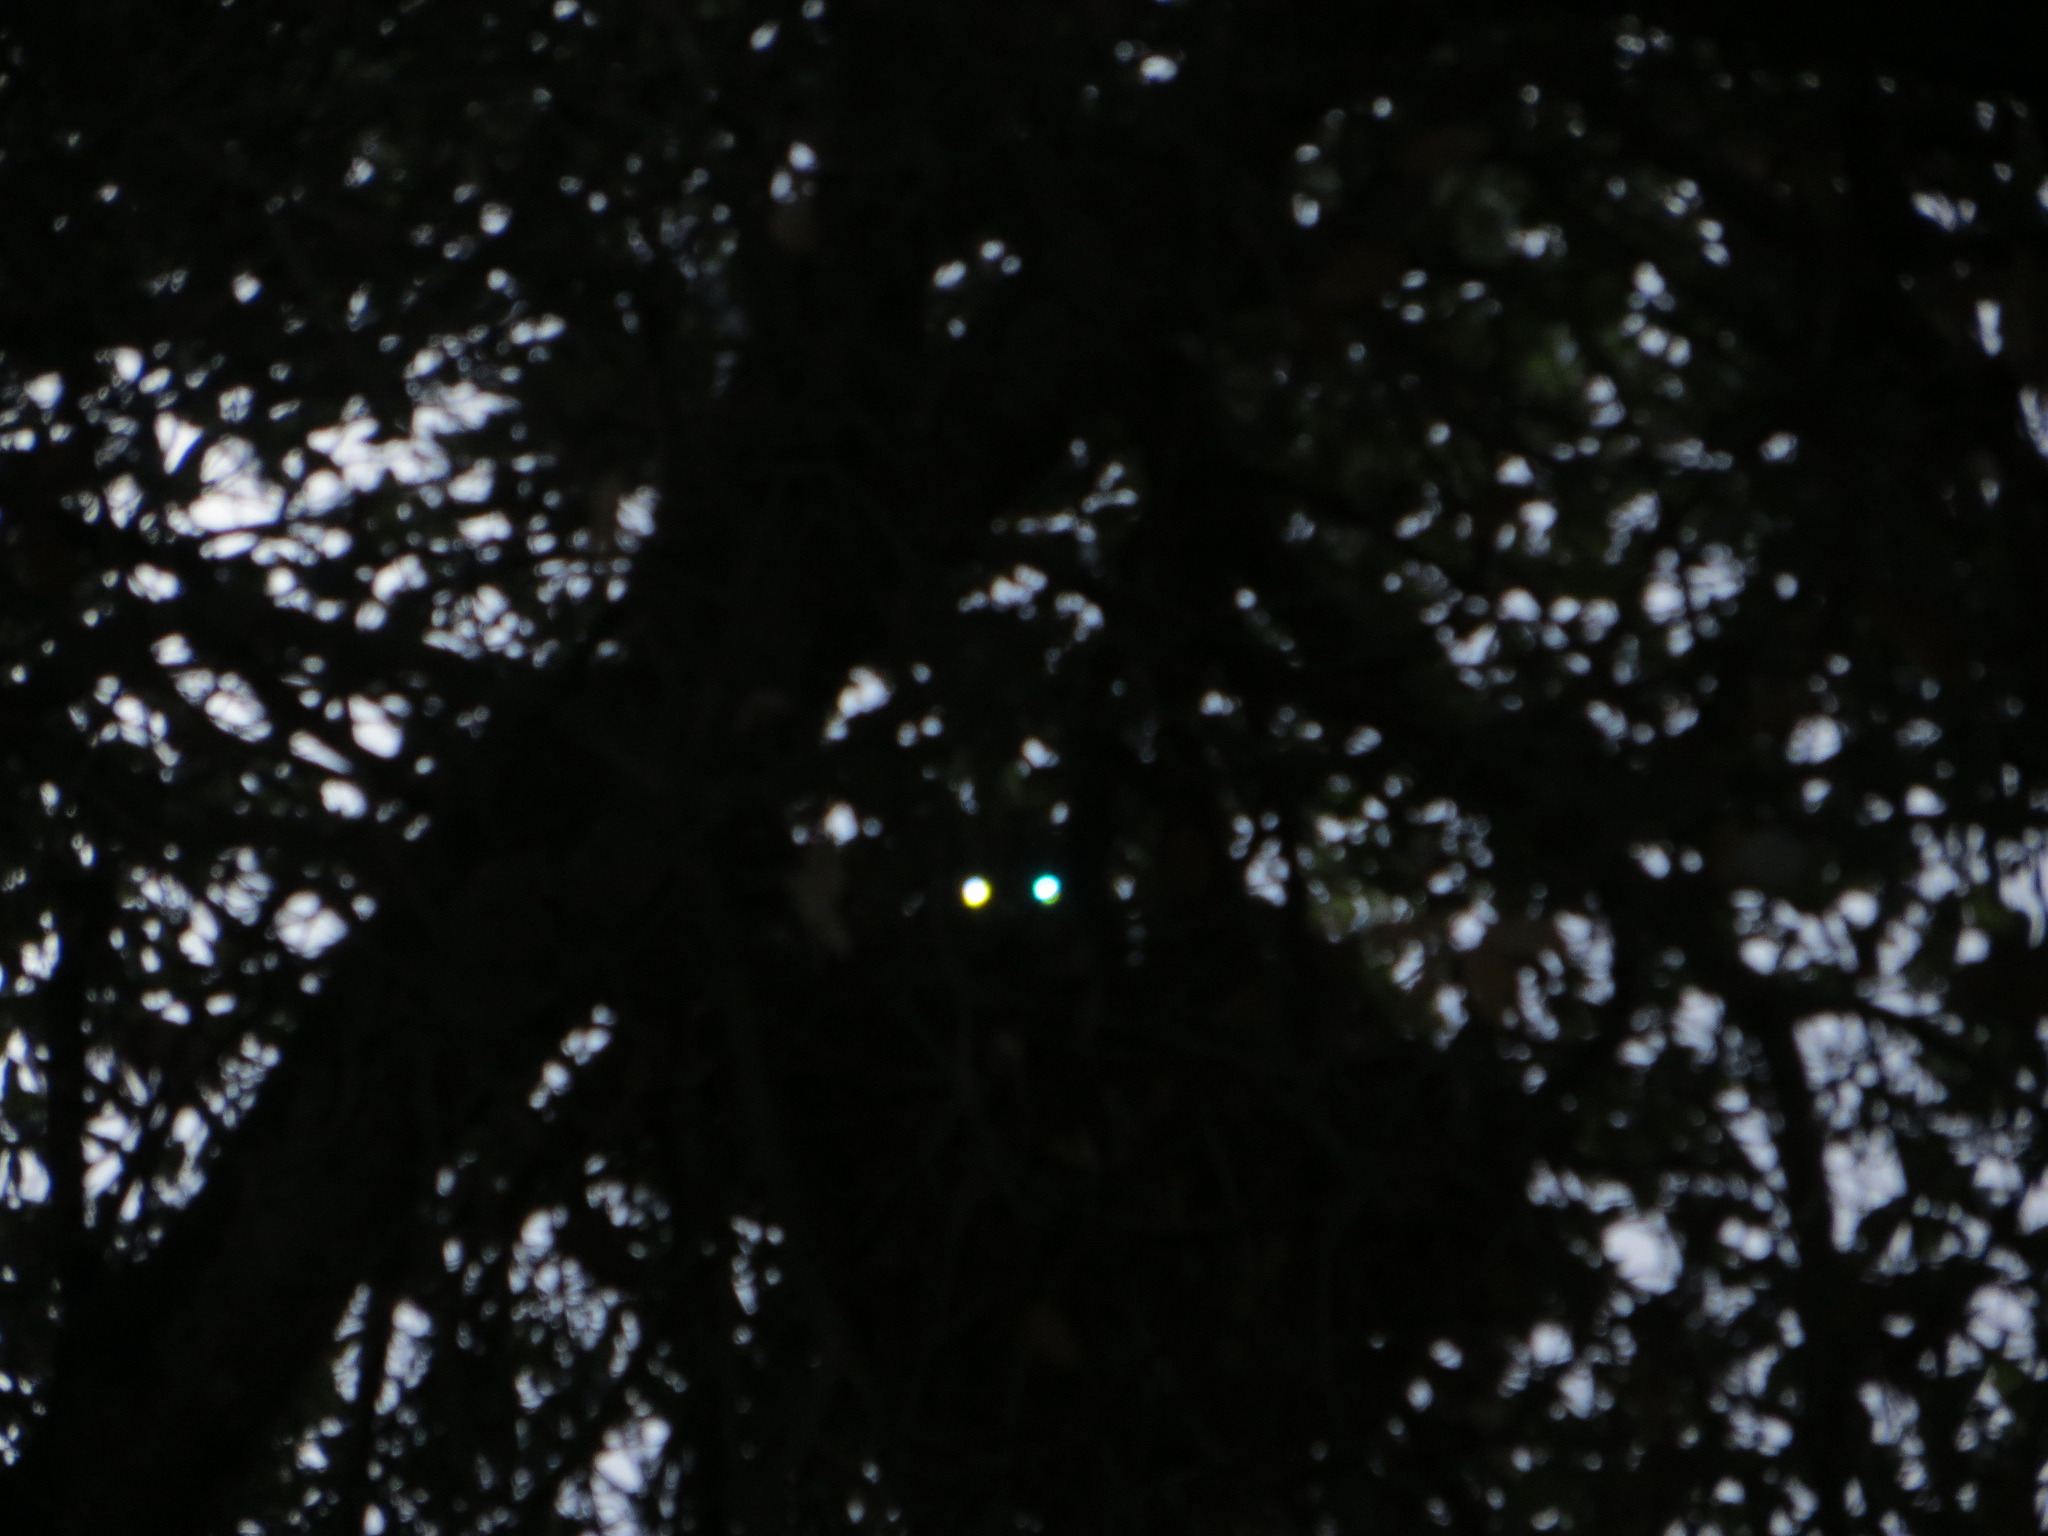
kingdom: Animalia
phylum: Chordata
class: Mammalia
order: Carnivora
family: Felidae
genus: Lynx
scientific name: Lynx rufus
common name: Bobcat
